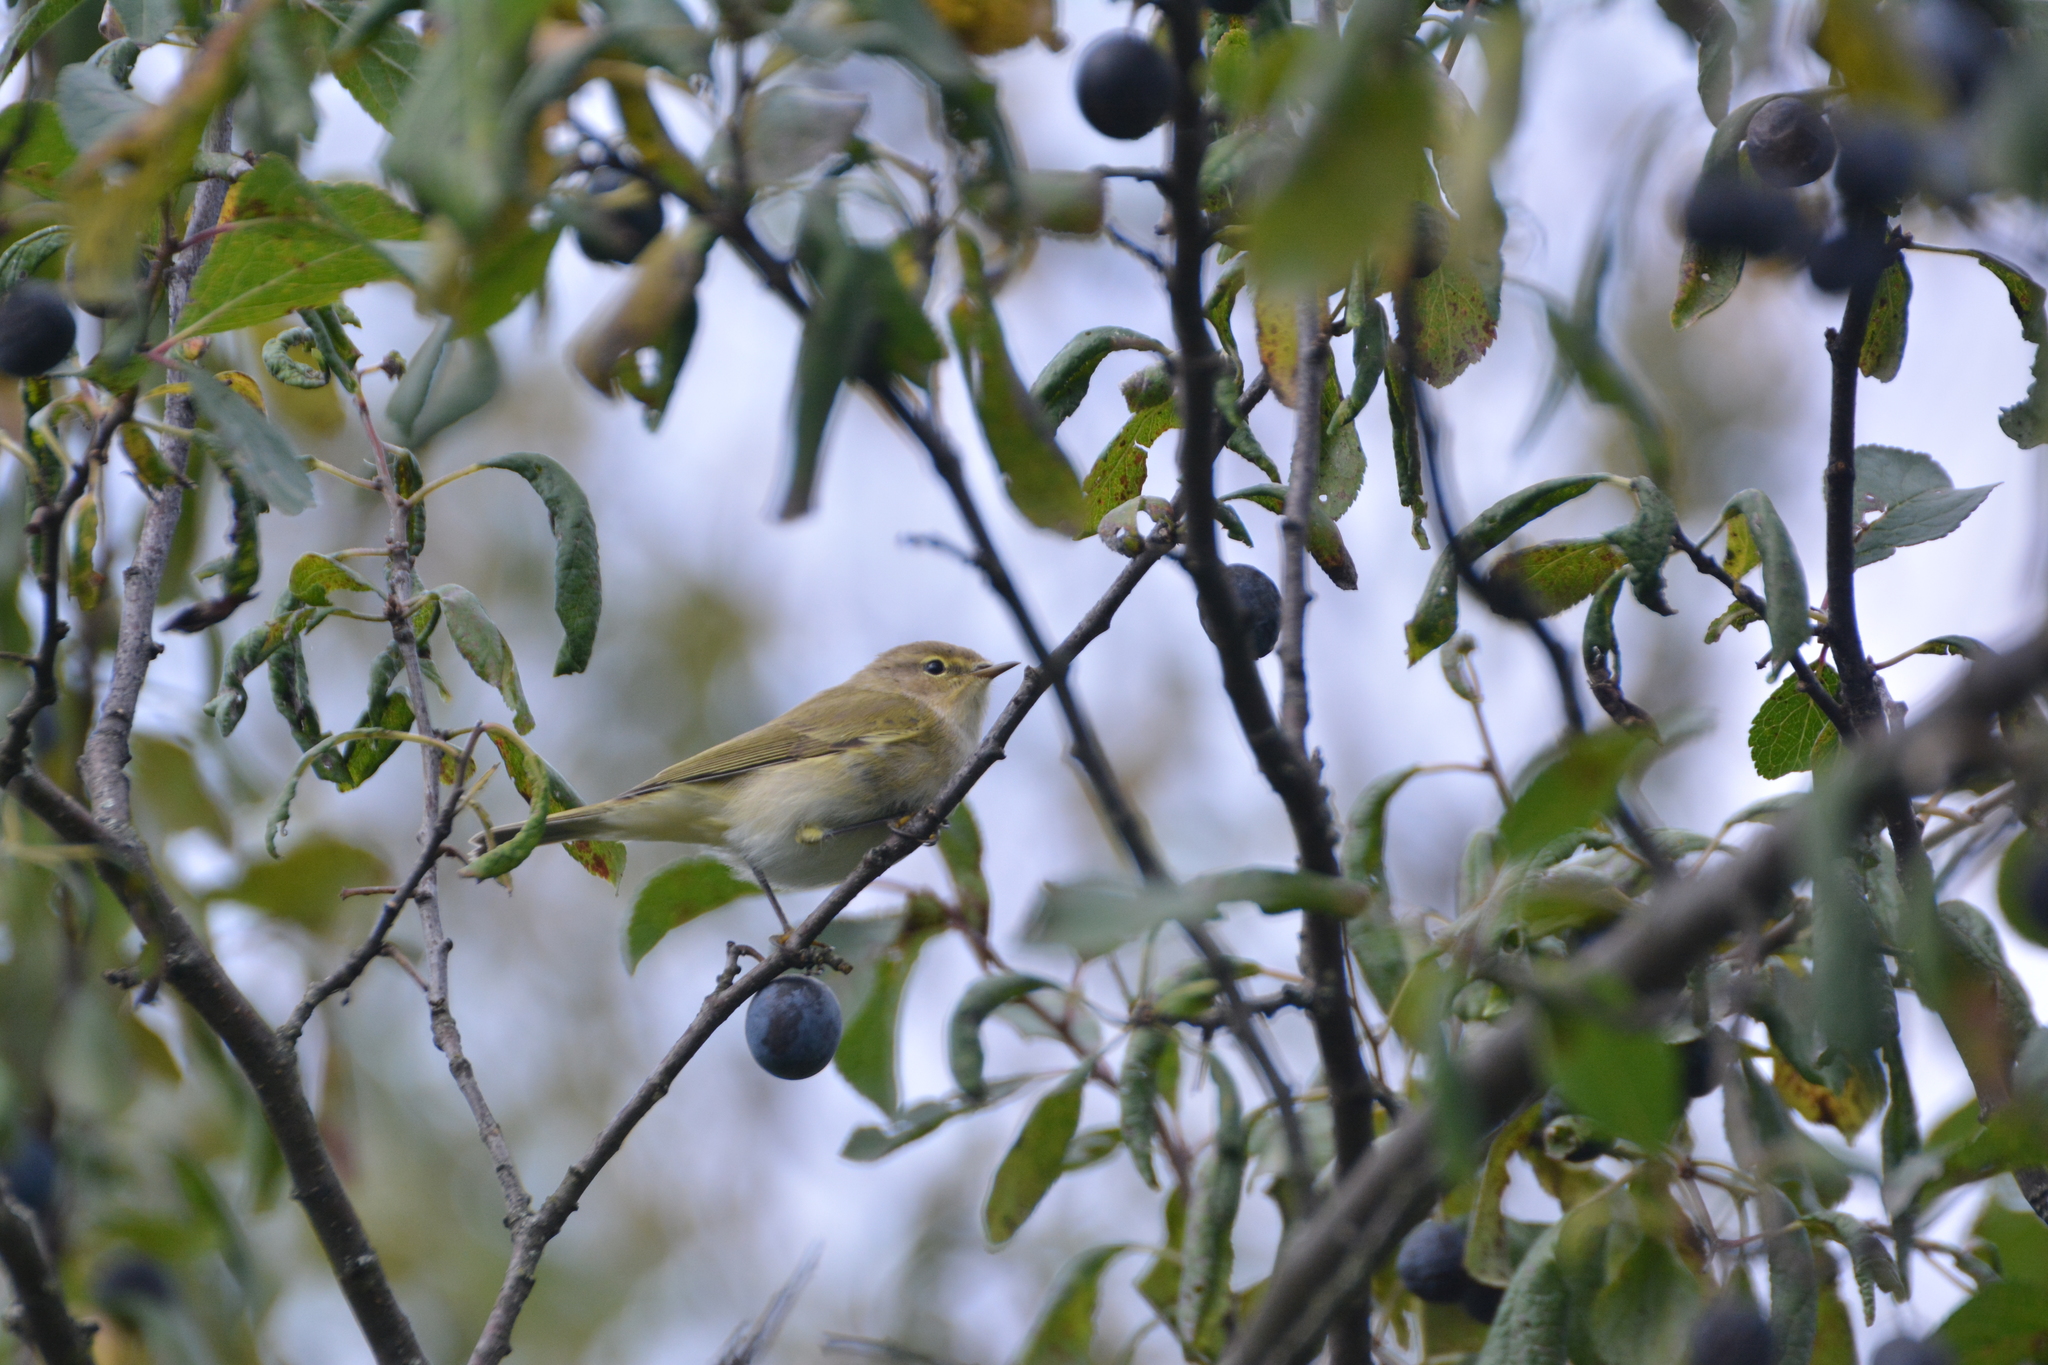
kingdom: Animalia
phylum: Chordata
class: Aves
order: Passeriformes
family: Phylloscopidae
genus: Phylloscopus
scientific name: Phylloscopus collybita
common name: Common chiffchaff
